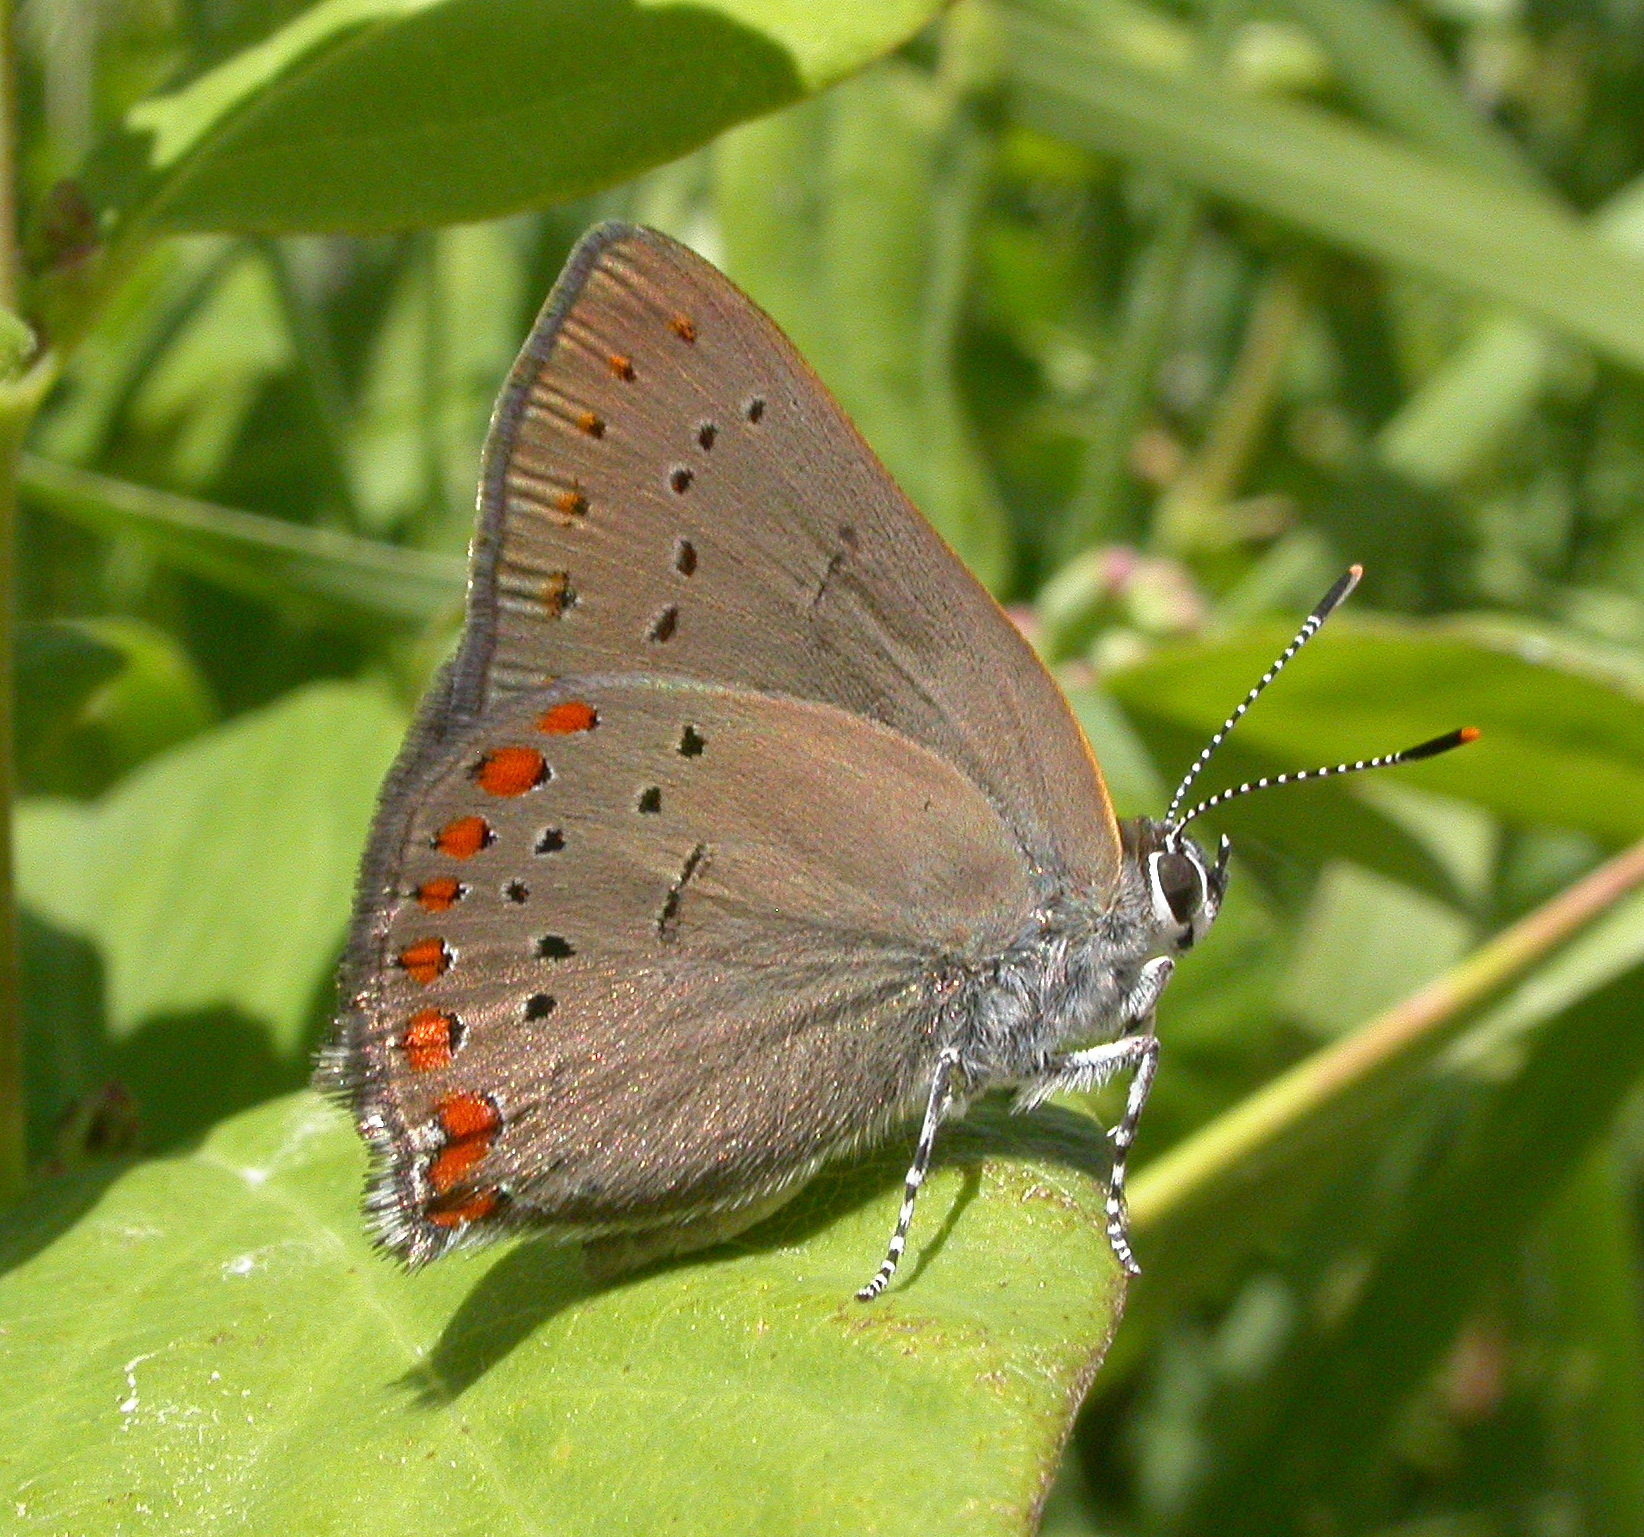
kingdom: Animalia
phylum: Arthropoda
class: Insecta
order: Lepidoptera
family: Lycaenidae
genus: Harkenclenus
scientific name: Harkenclenus titus
